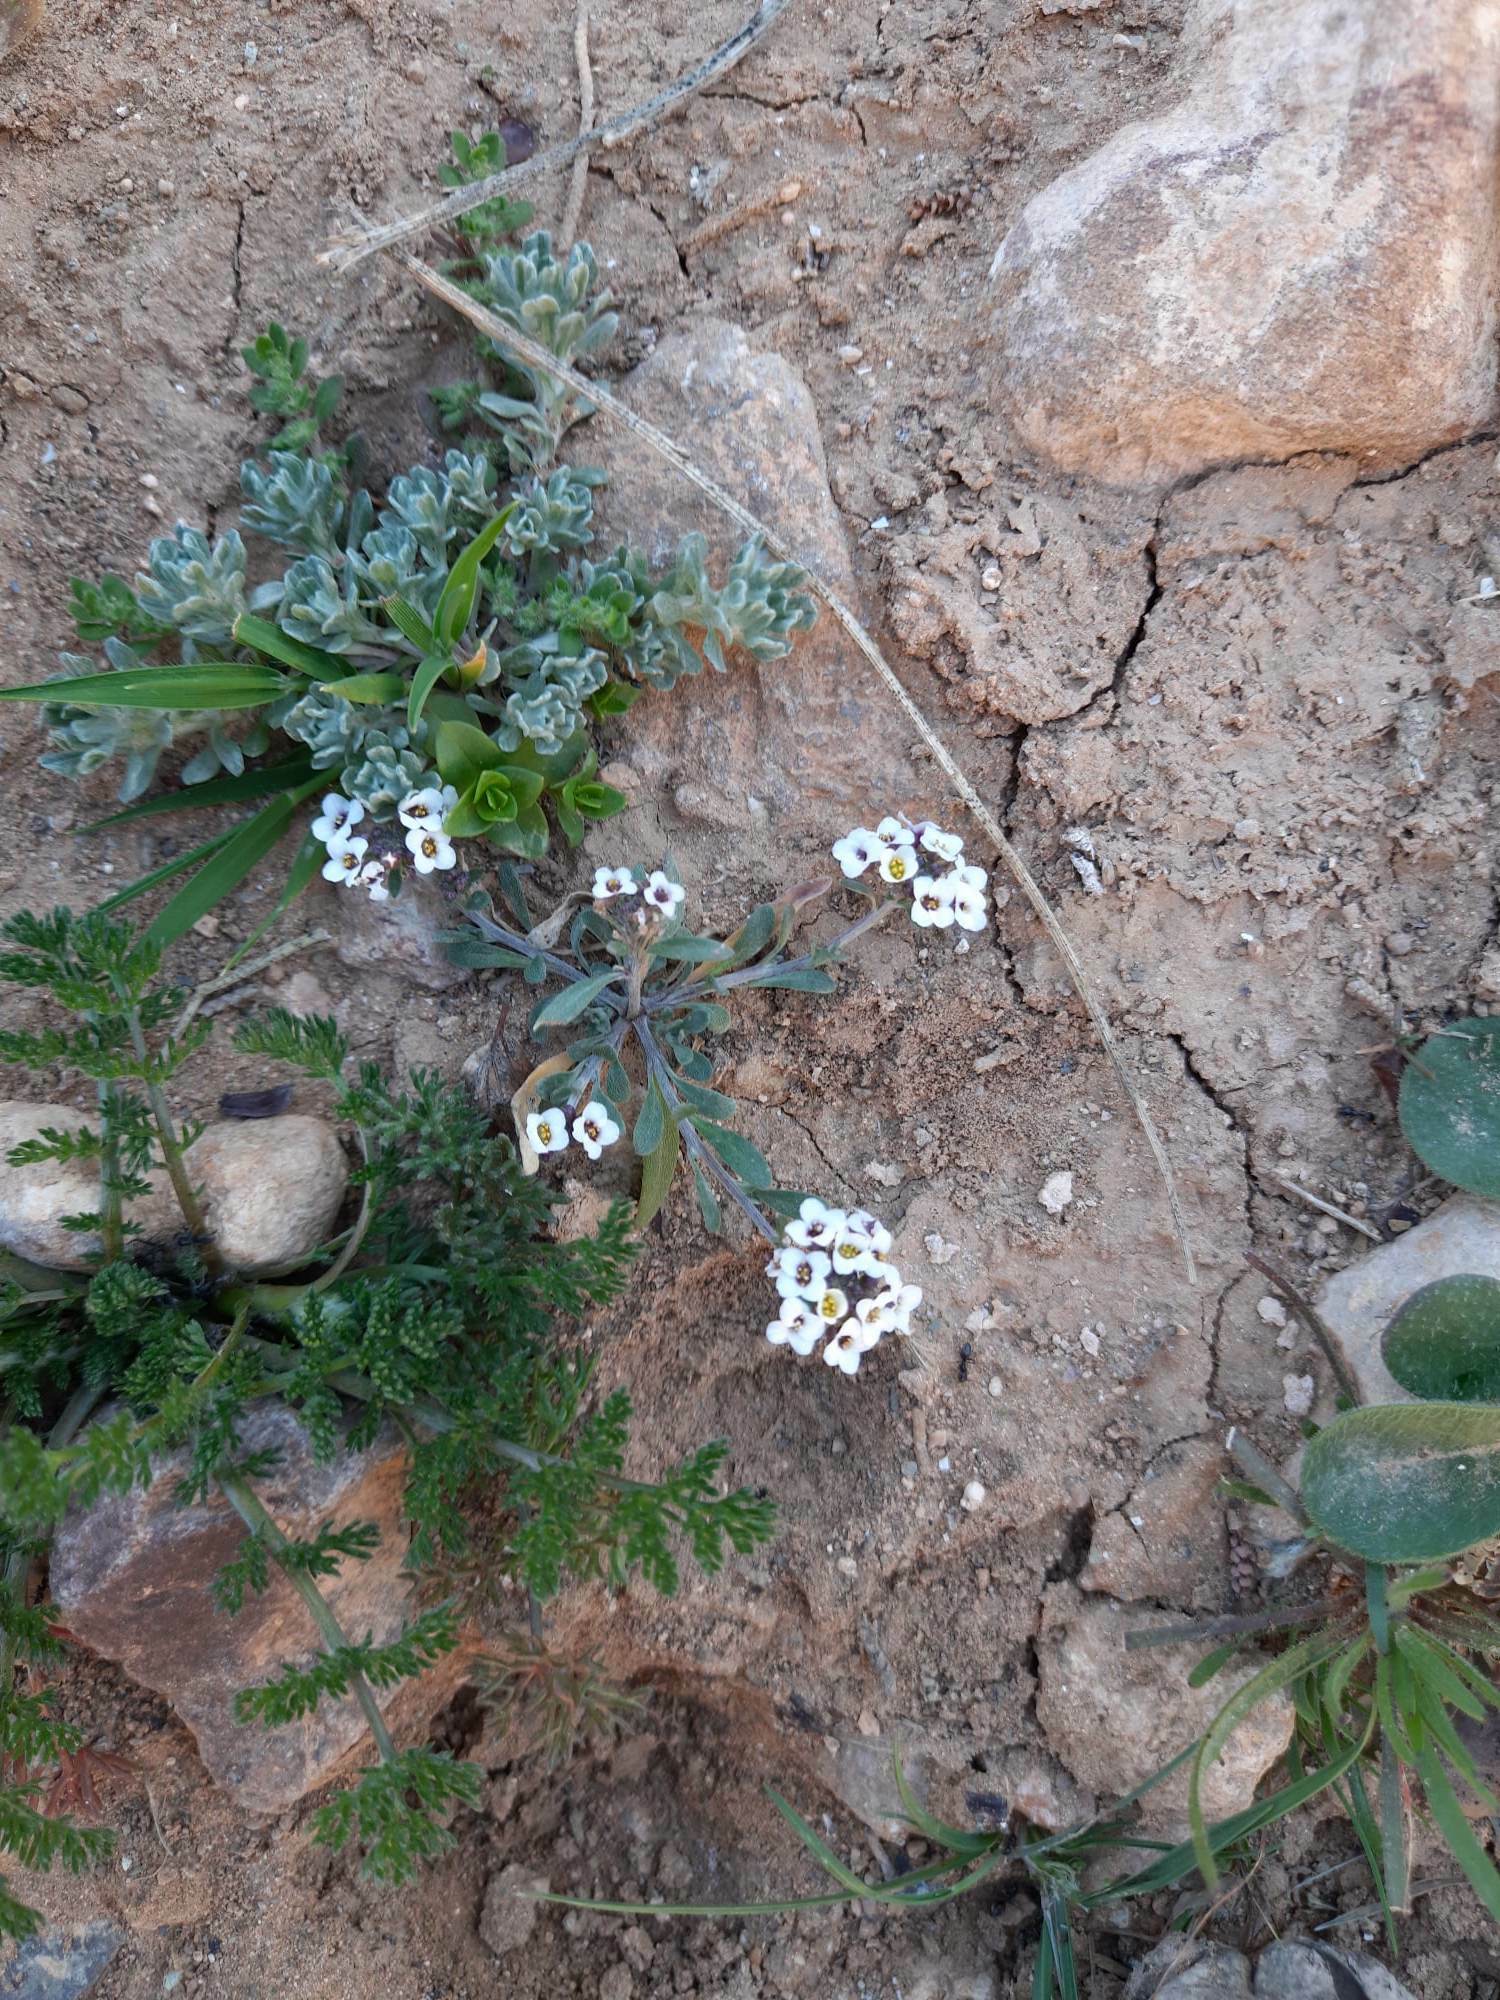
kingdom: Plantae
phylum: Tracheophyta
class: Magnoliopsida
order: Brassicales
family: Brassicaceae
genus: Lobularia
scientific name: Lobularia maritima
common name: Sweet alison
